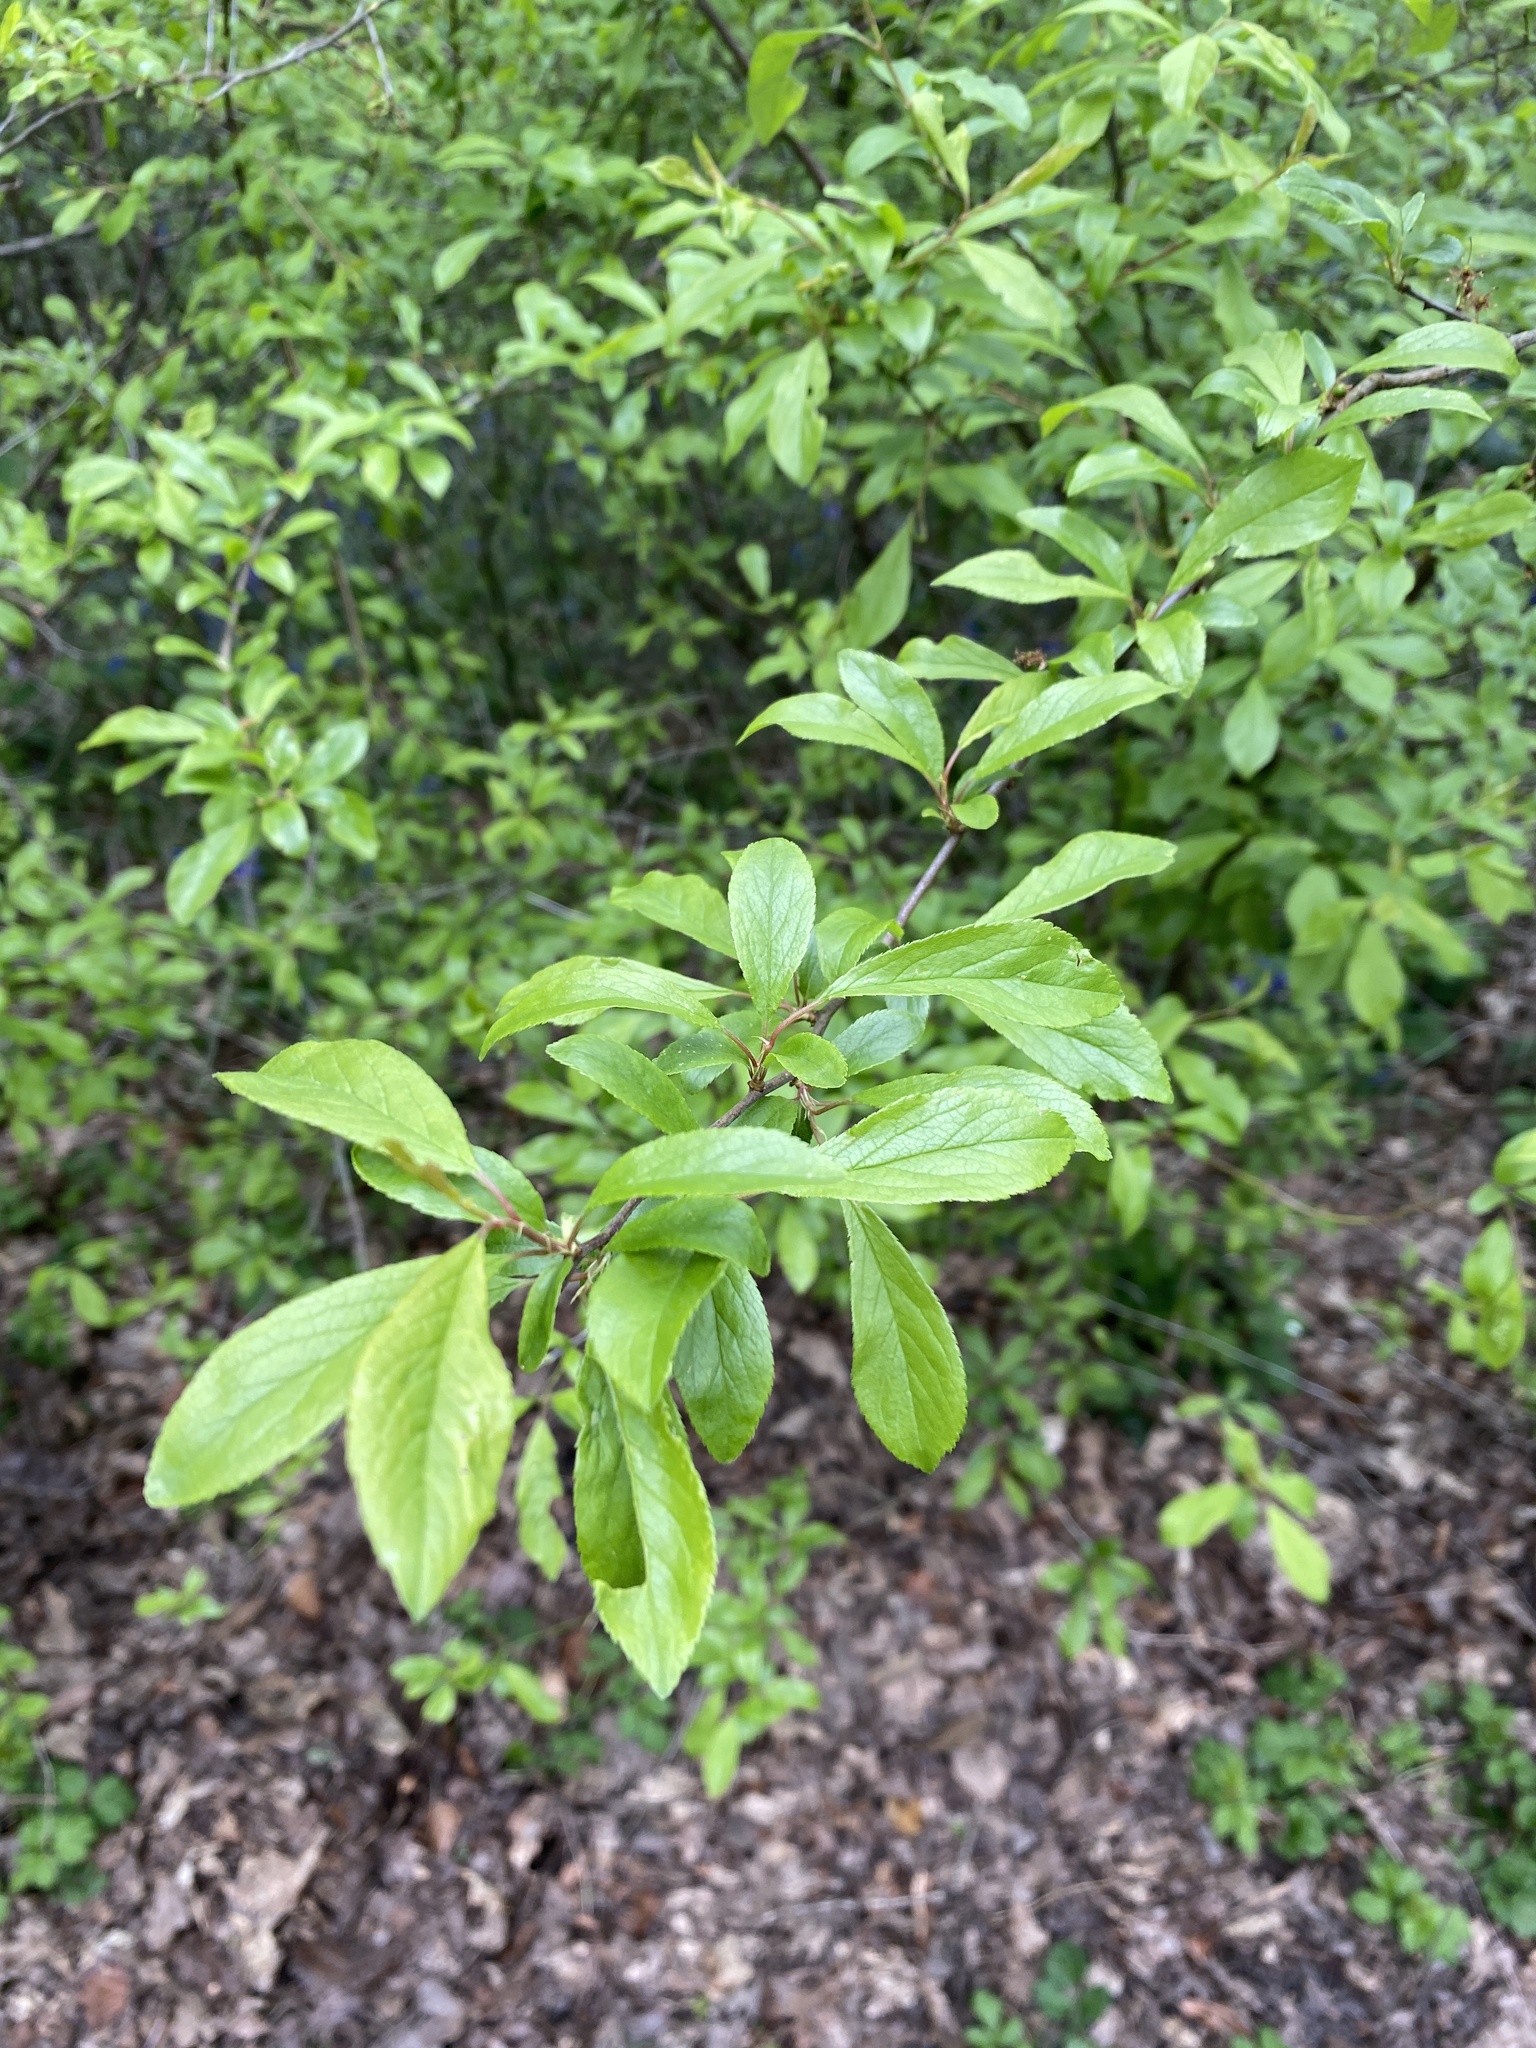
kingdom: Plantae
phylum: Tracheophyta
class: Magnoliopsida
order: Rosales
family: Rosaceae
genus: Prunus
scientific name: Prunus spinosa
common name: Blackthorn
